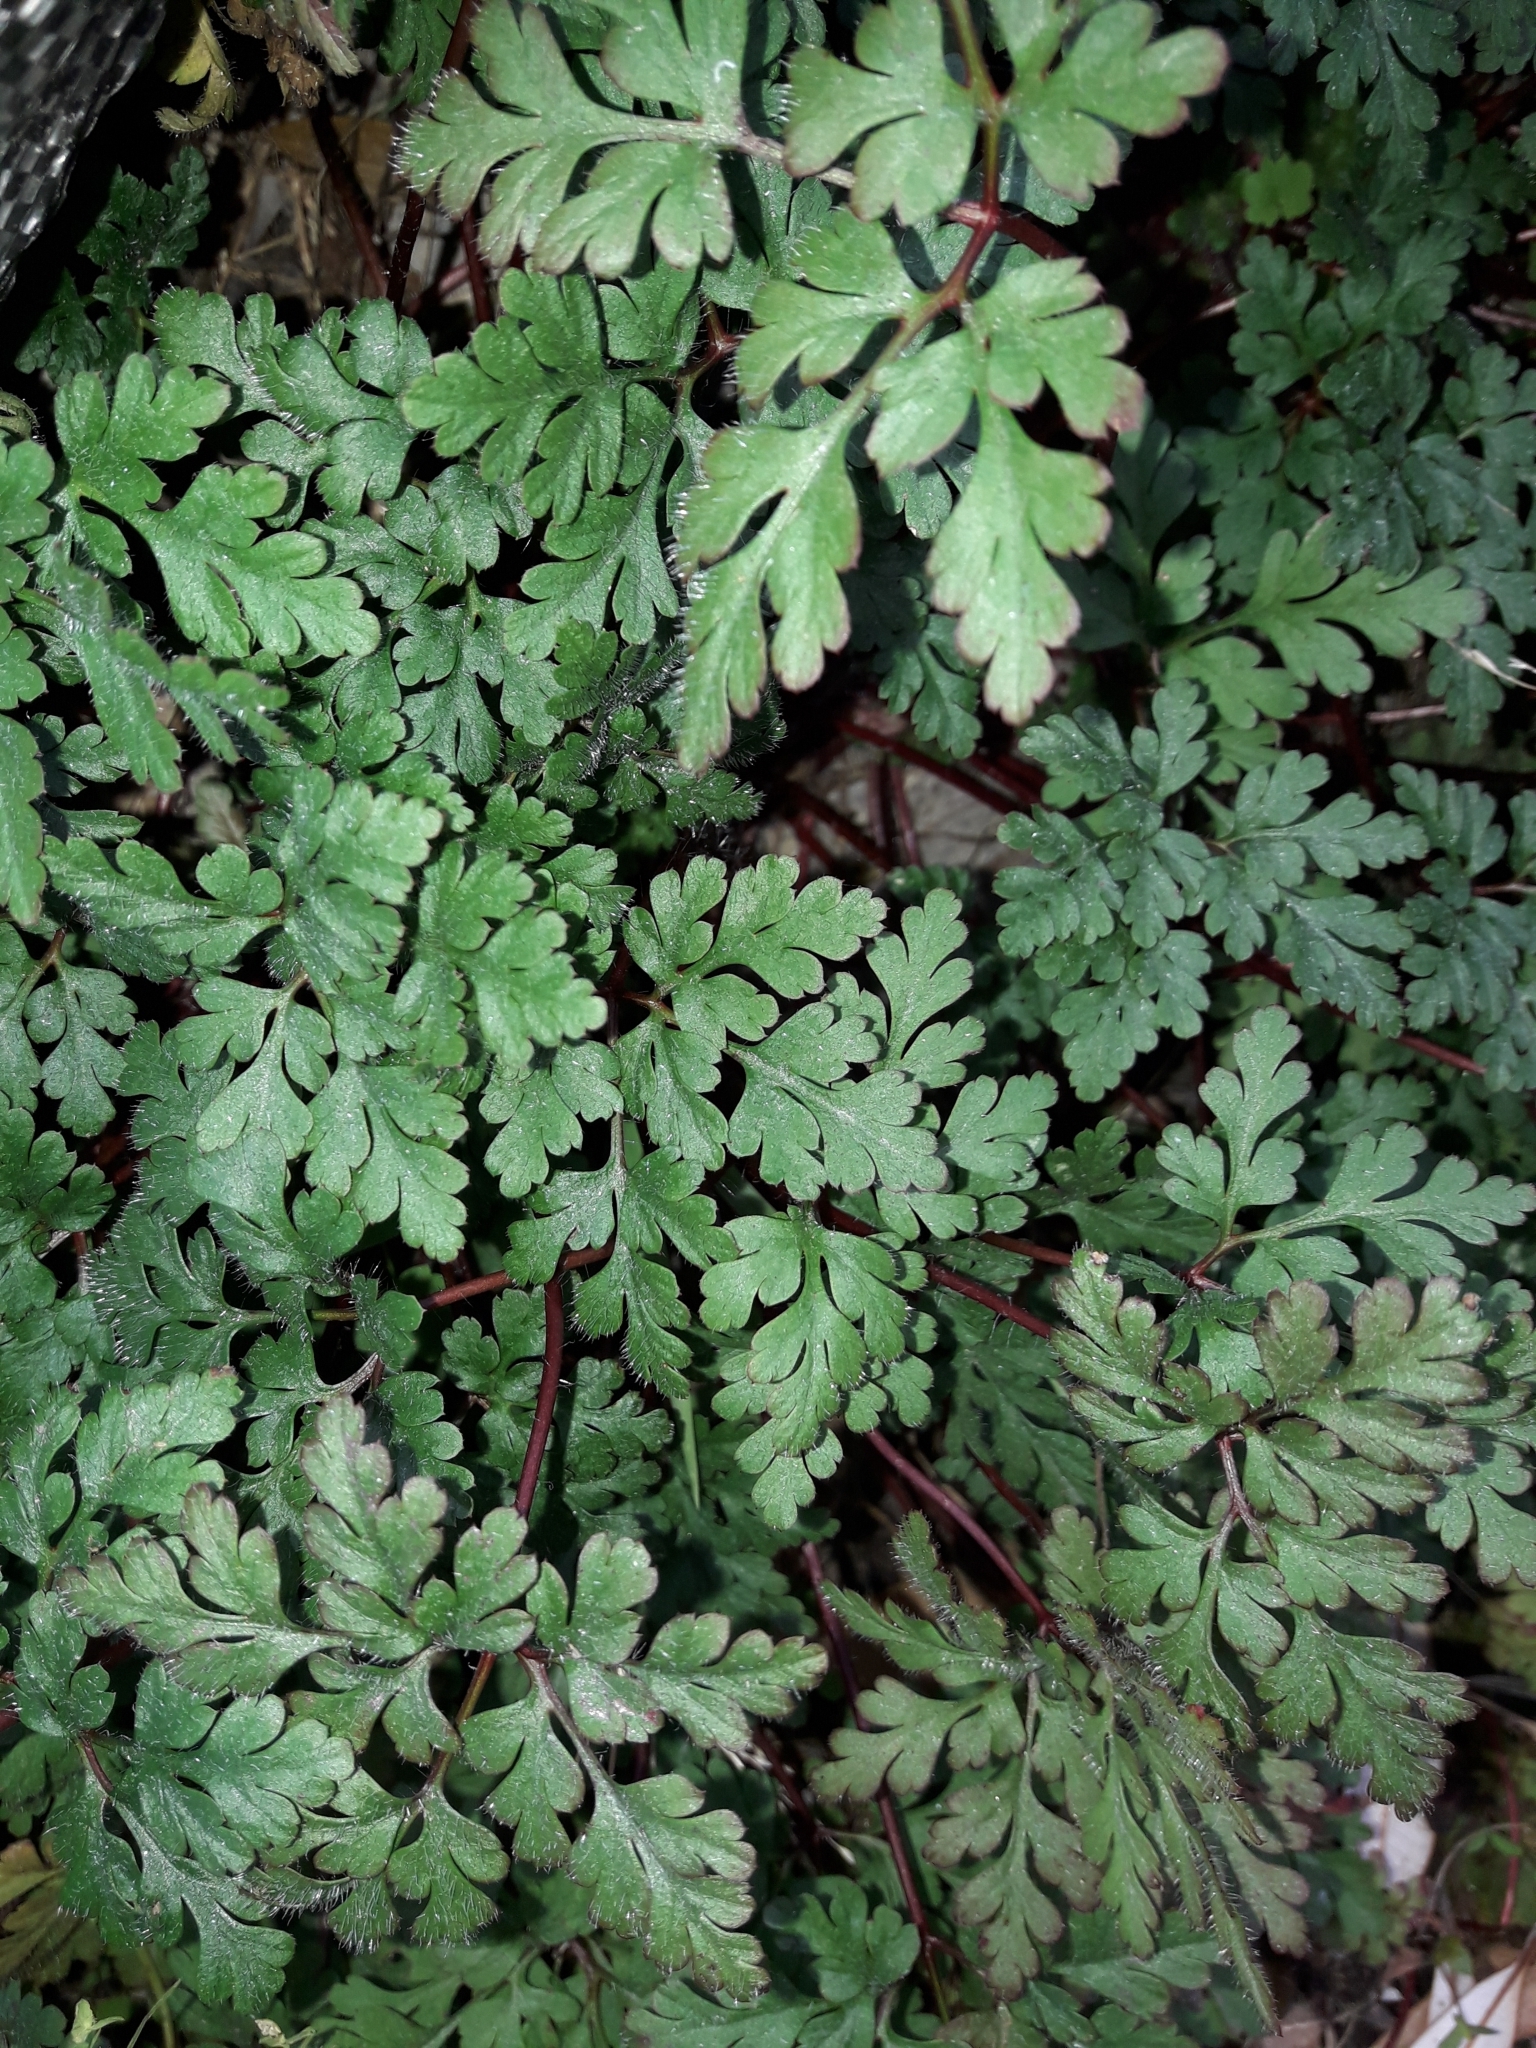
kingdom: Plantae
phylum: Tracheophyta
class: Magnoliopsida
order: Geraniales
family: Geraniaceae
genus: Geranium
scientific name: Geranium robertianum
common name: Herb-robert
